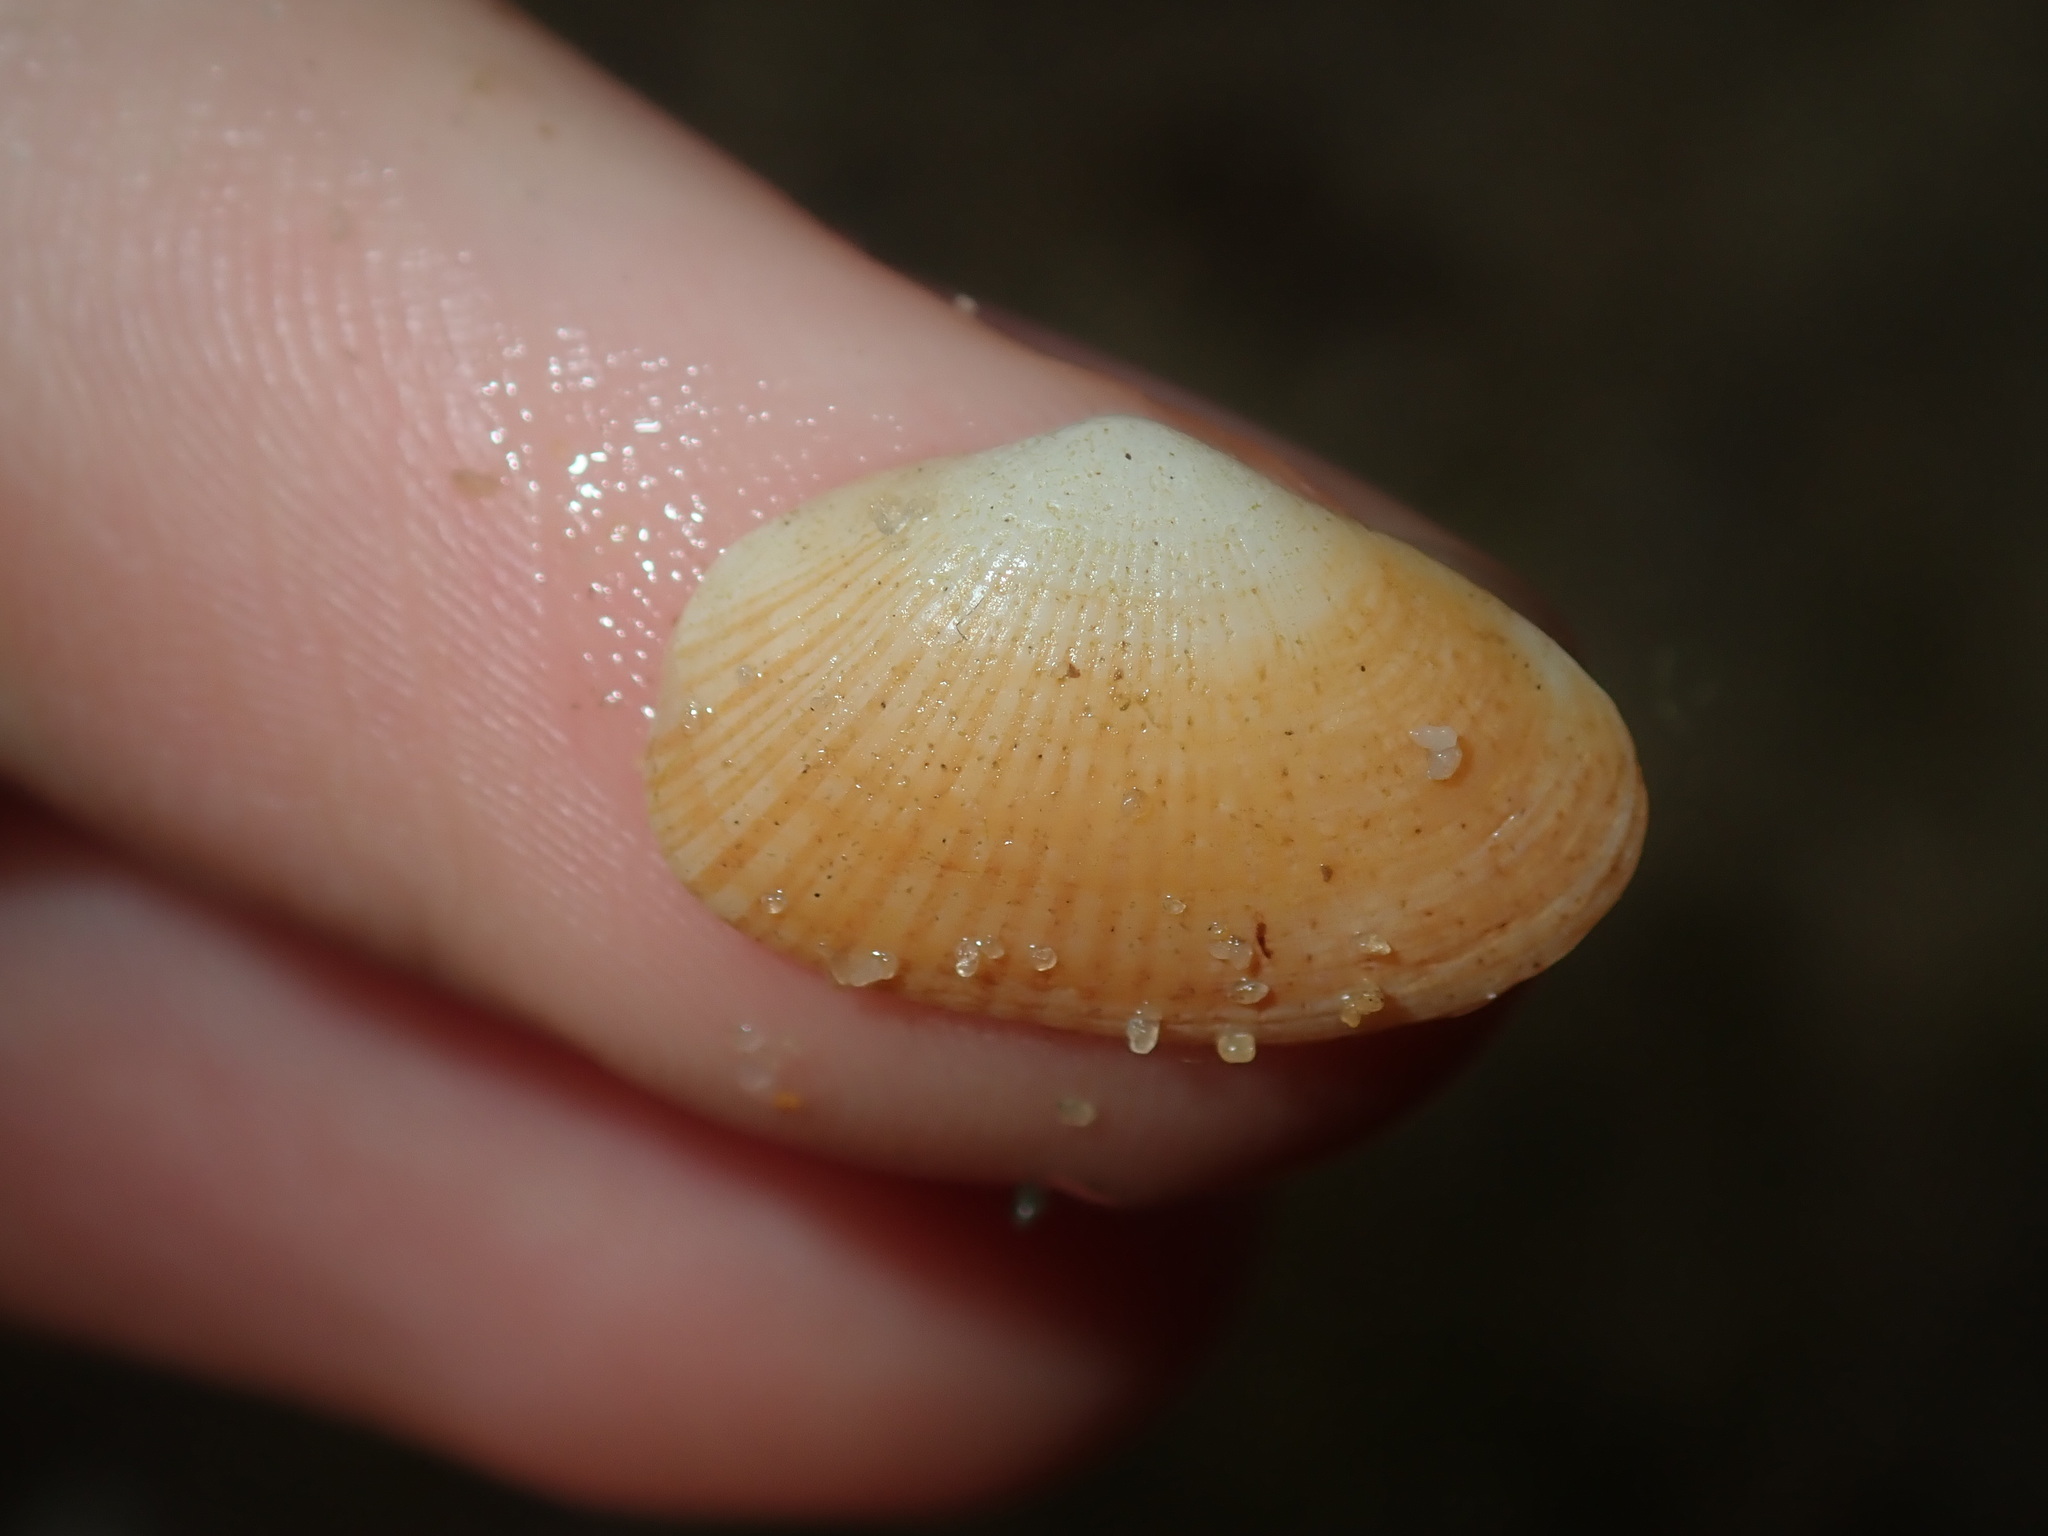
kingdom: Animalia
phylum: Mollusca
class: Bivalvia
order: Venerida
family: Hemidonacidae
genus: Hemidonax
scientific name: Hemidonax dactylus
